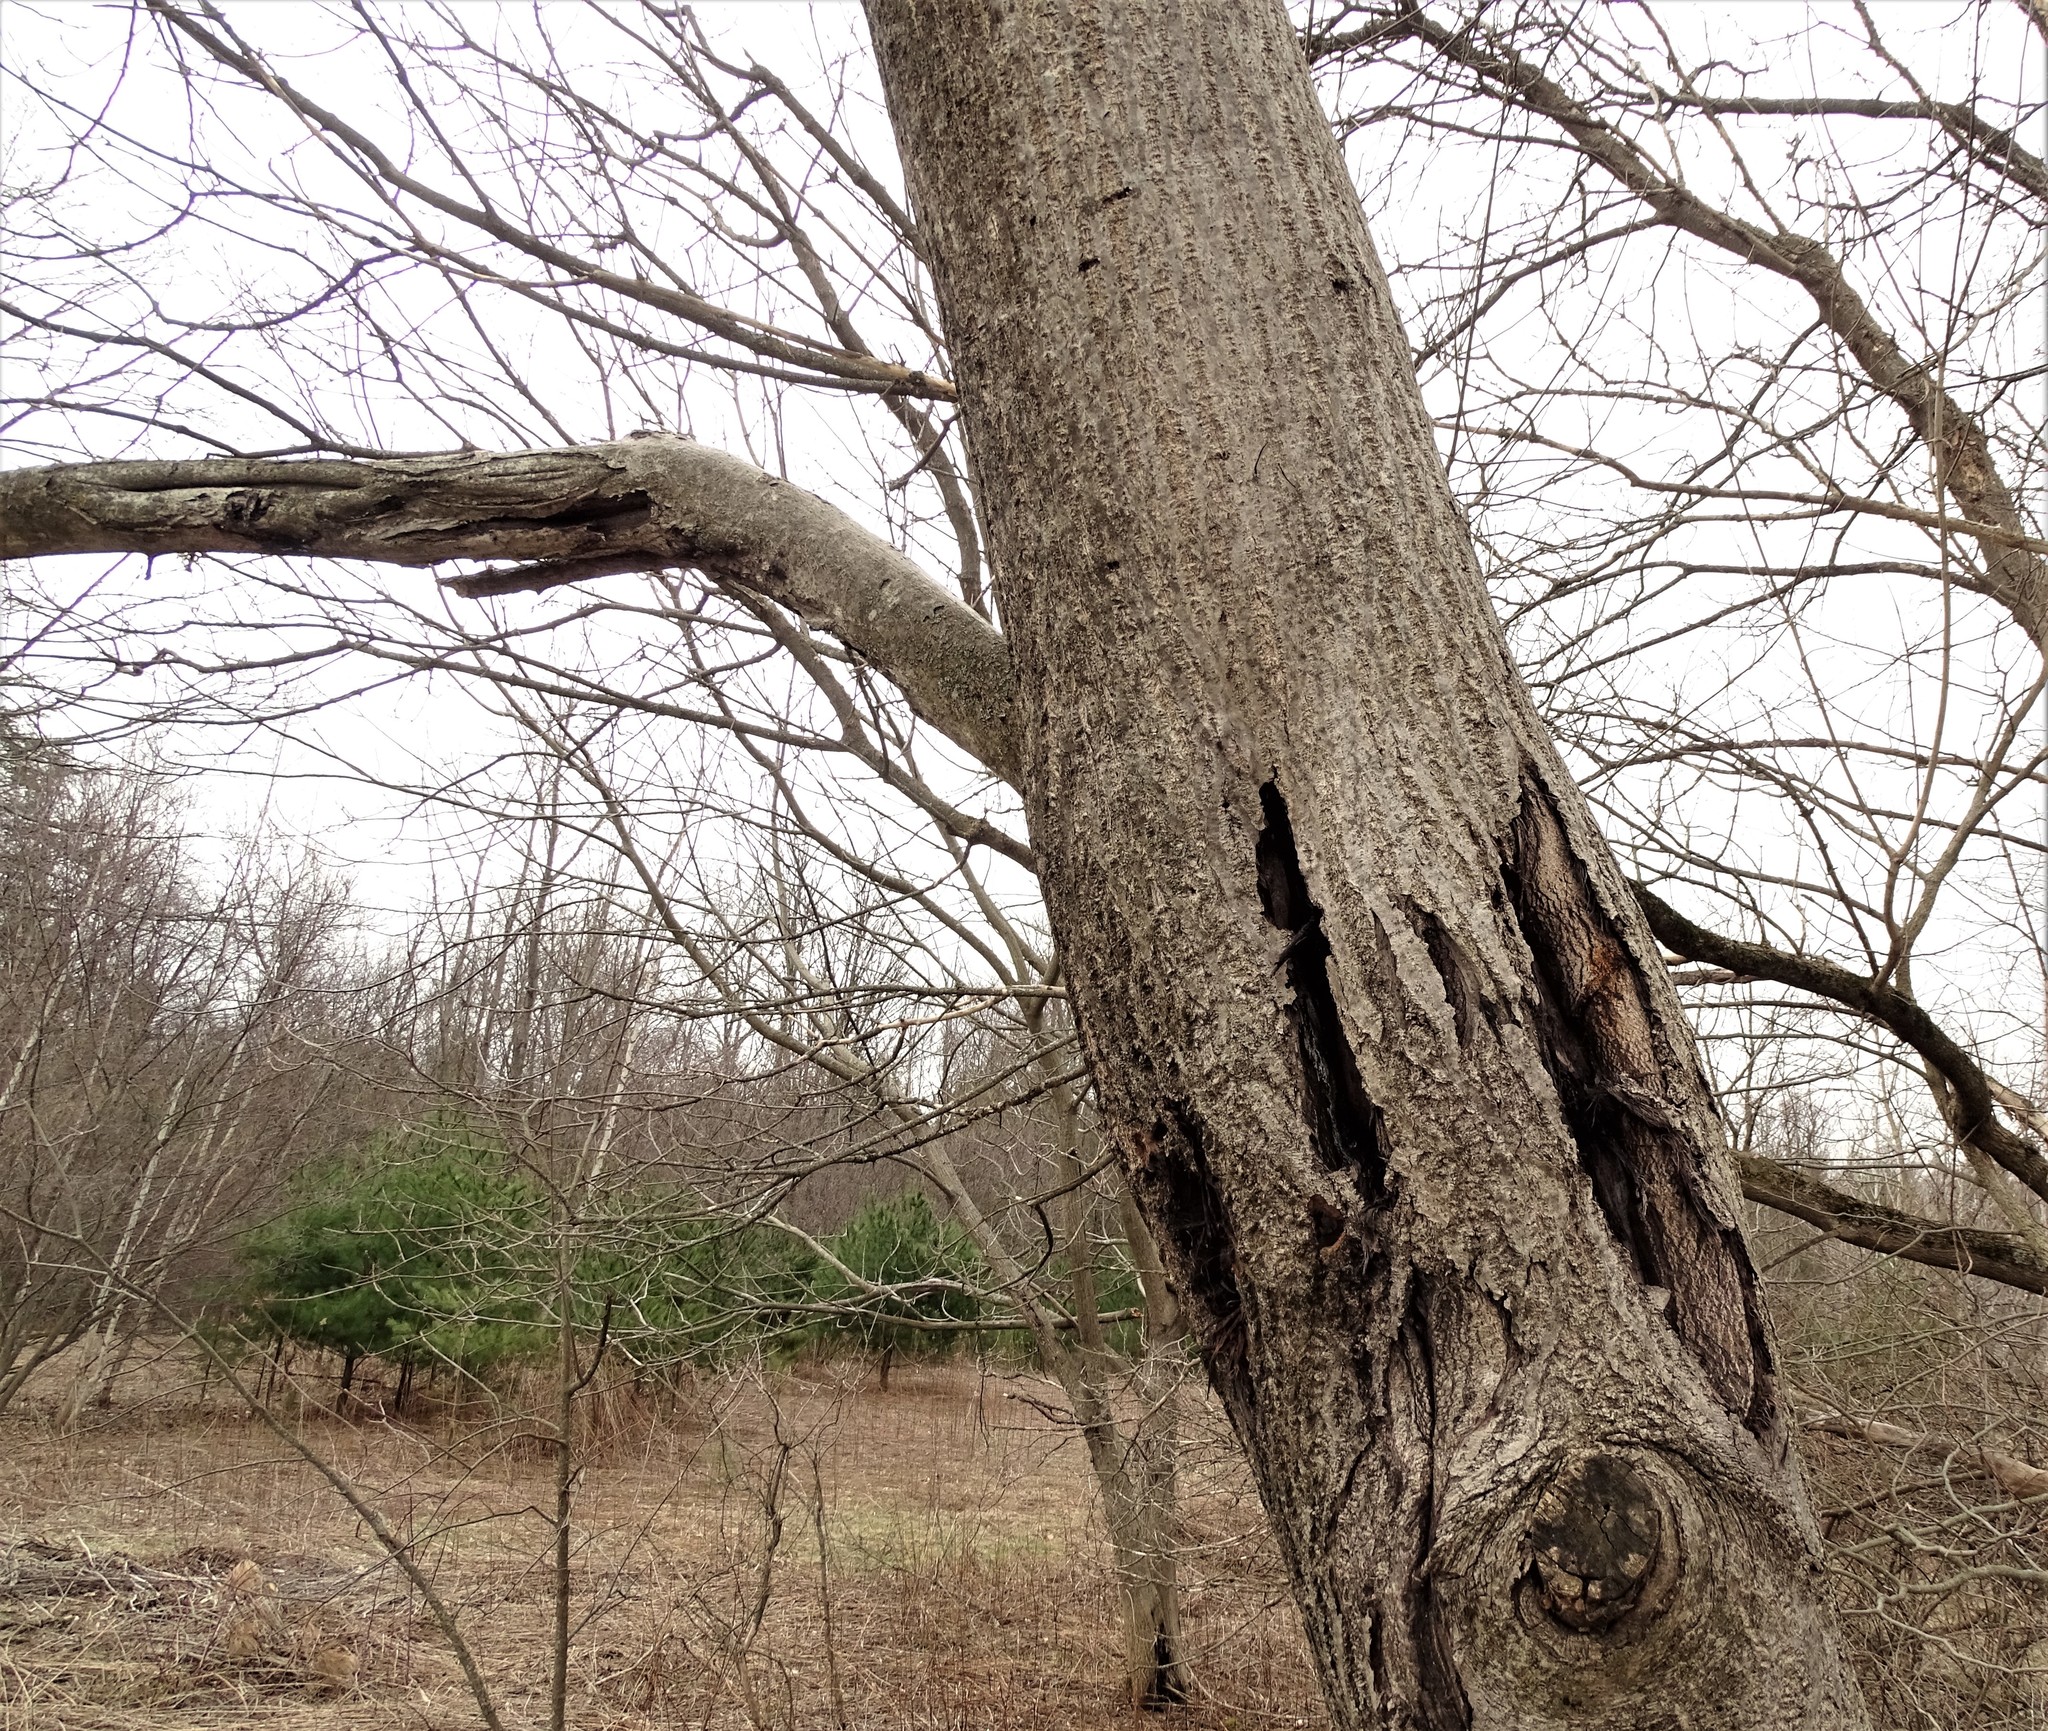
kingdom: Plantae
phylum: Tracheophyta
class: Magnoliopsida
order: Fagales
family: Juglandaceae
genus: Juglans
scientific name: Juglans cinerea
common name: Butternut
